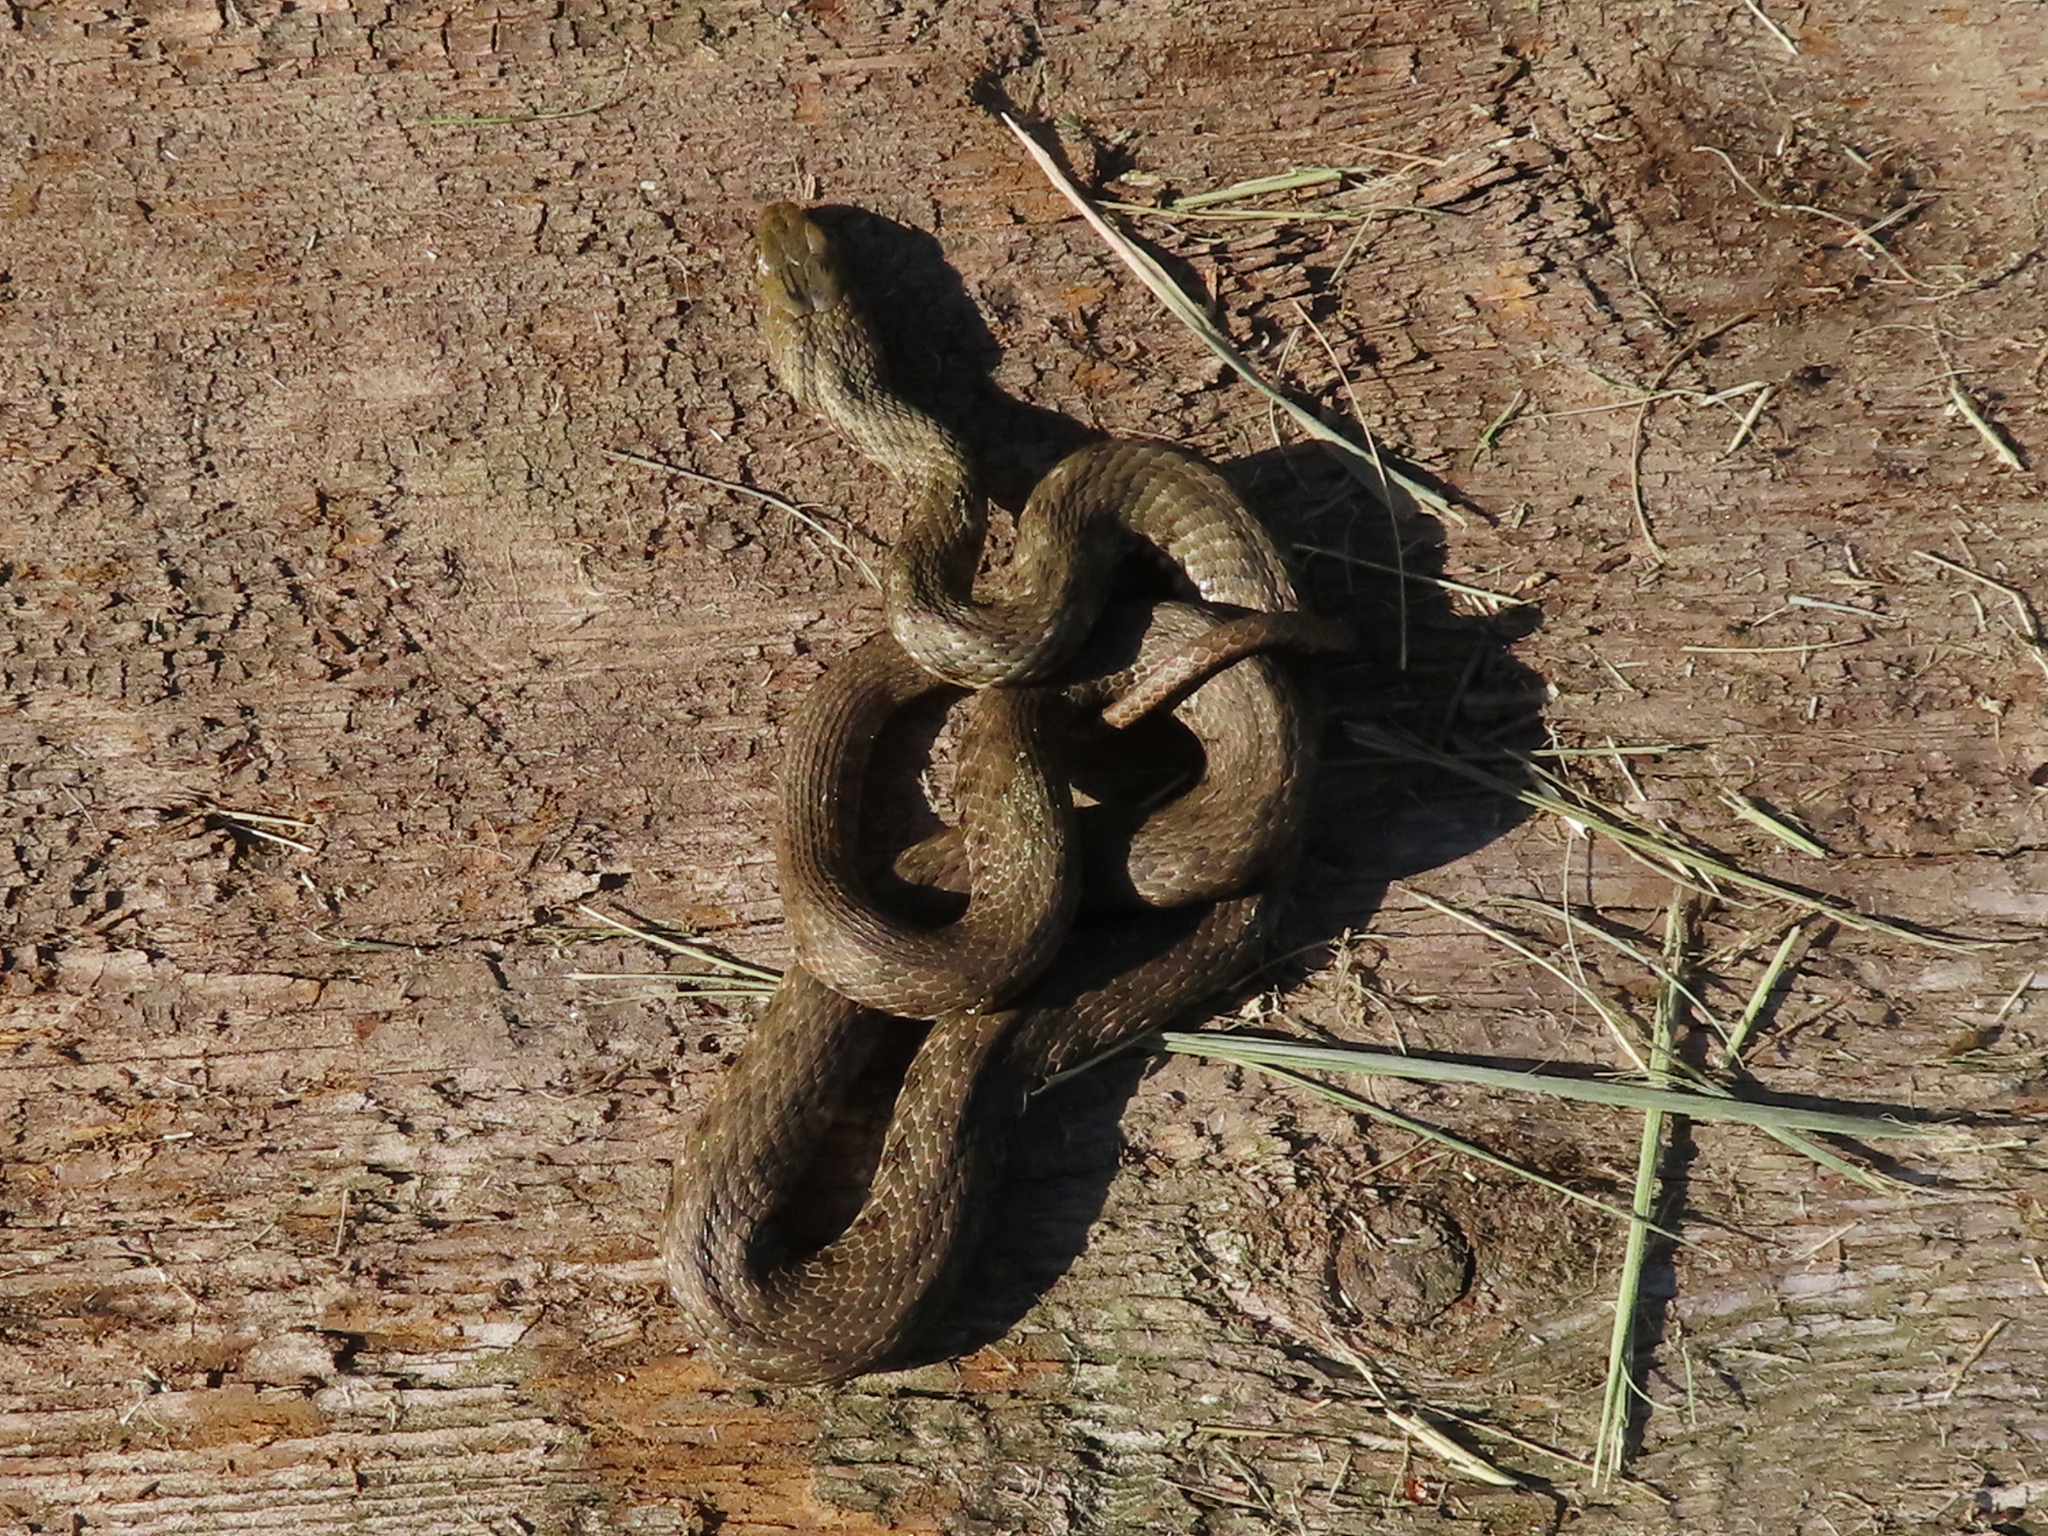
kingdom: Animalia
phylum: Chordata
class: Squamata
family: Colubridae
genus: Natrix
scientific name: Natrix tessellata
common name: Dice snake
